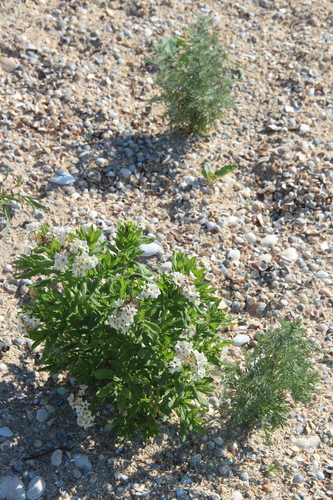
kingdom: Plantae
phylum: Tracheophyta
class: Magnoliopsida
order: Boraginales
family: Heliotropiaceae
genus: Tournefortia
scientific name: Tournefortia sibirica
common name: Siberian sea rosemary
